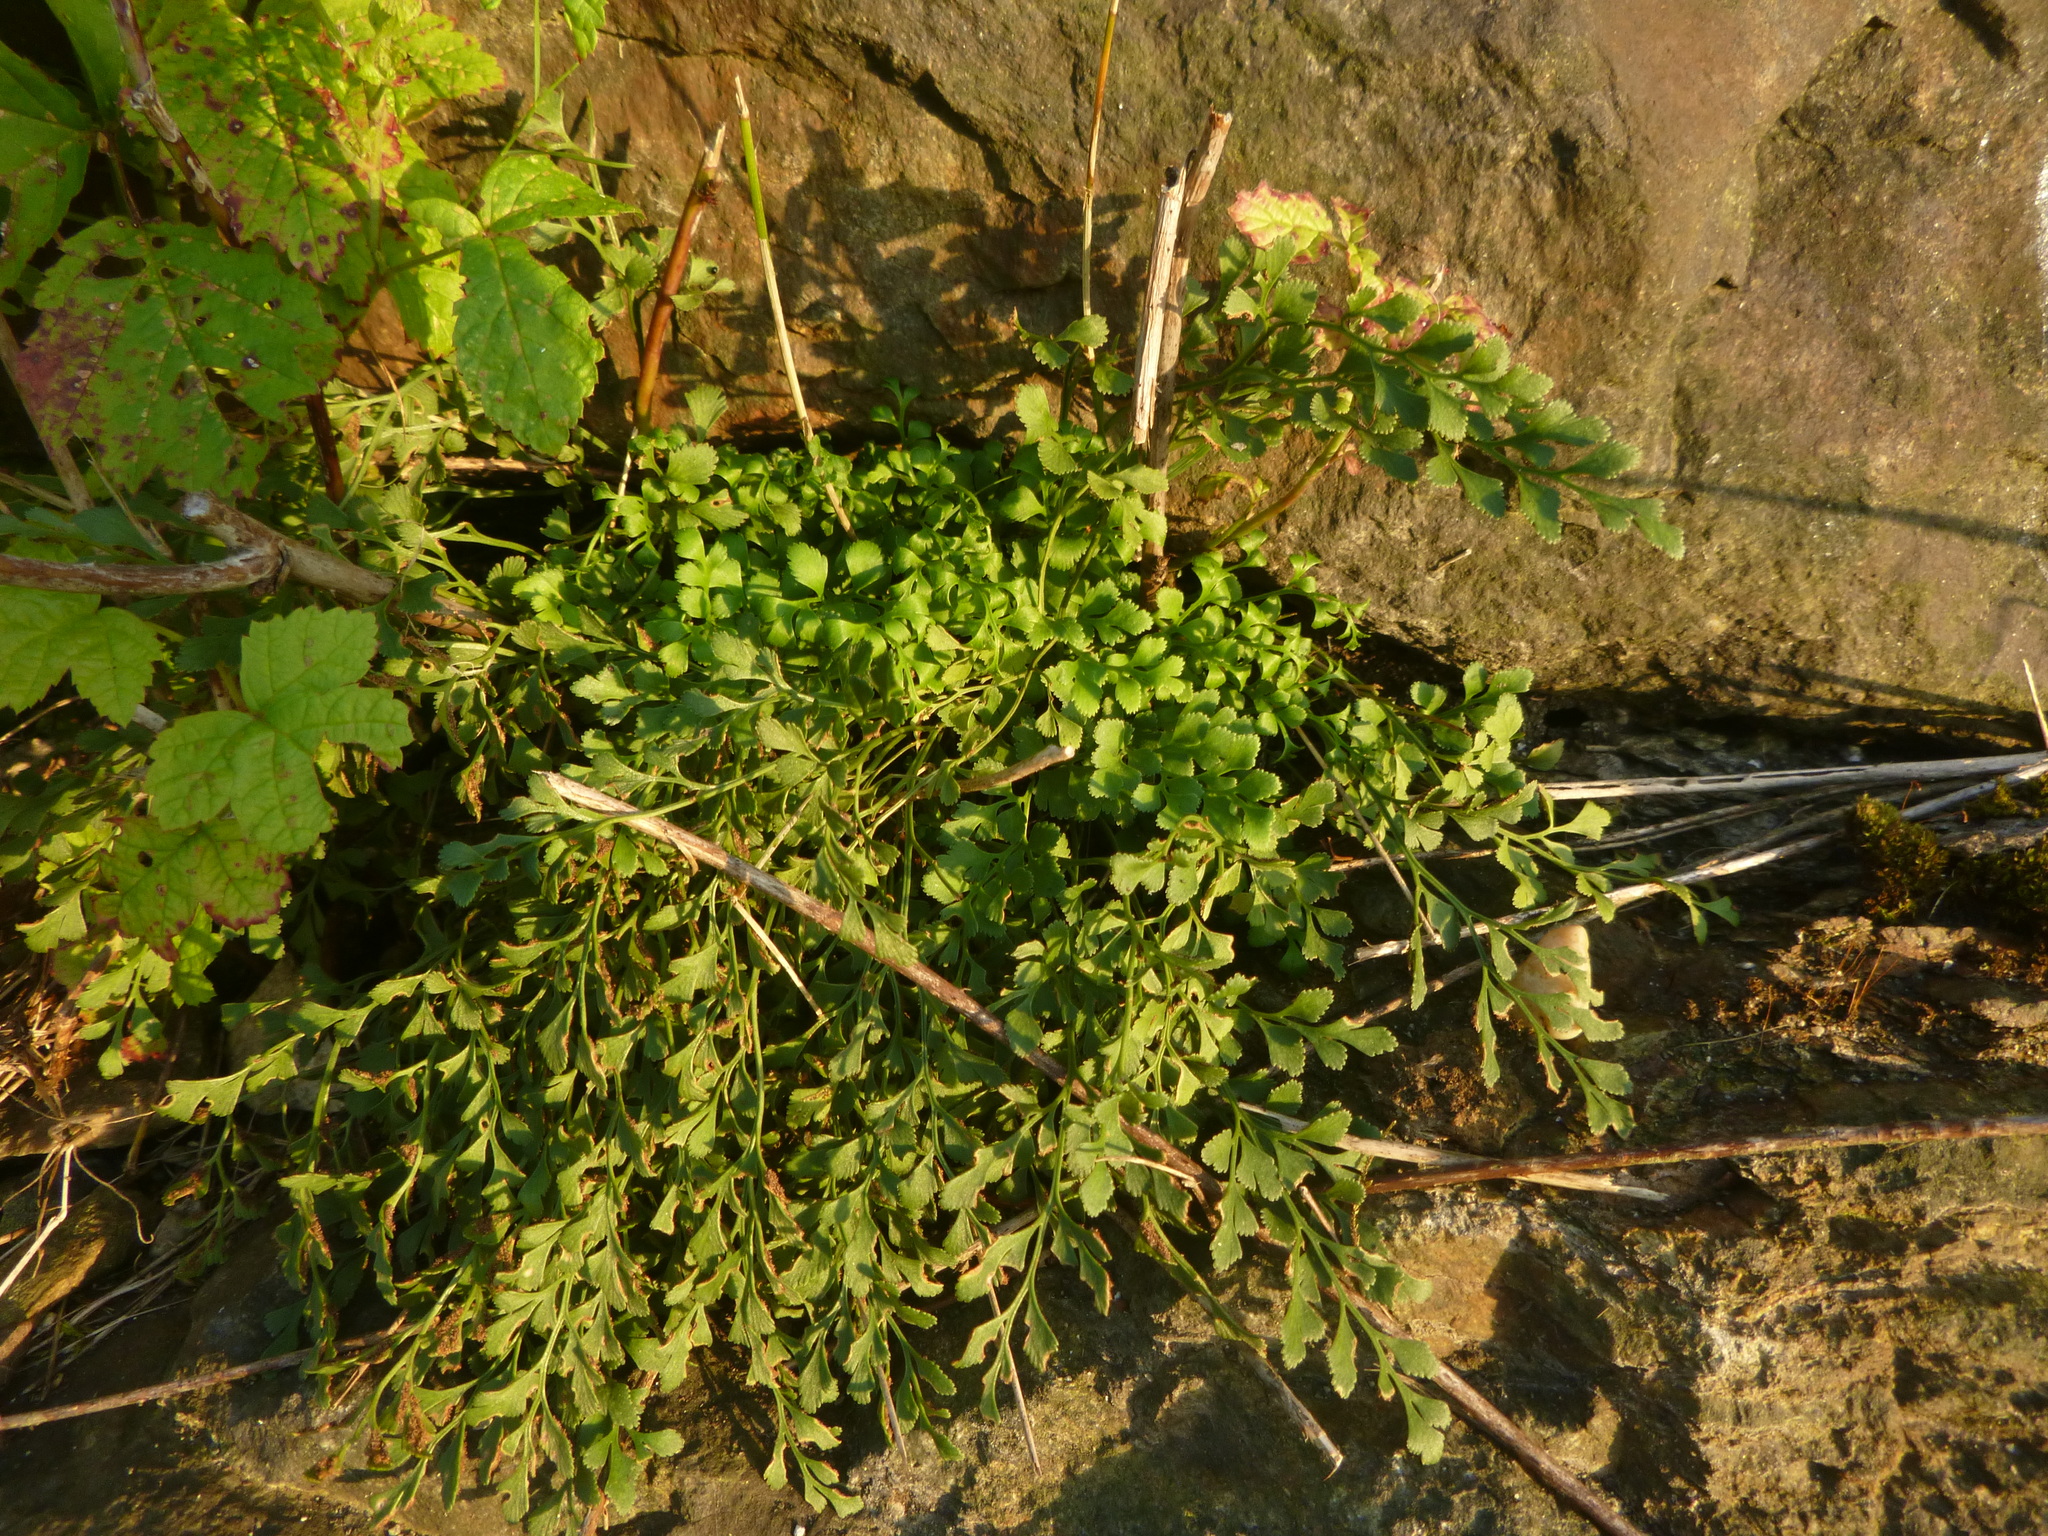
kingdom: Plantae
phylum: Tracheophyta
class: Polypodiopsida
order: Polypodiales
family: Aspleniaceae
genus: Asplenium
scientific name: Asplenium ruta-muraria
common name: Wall-rue
